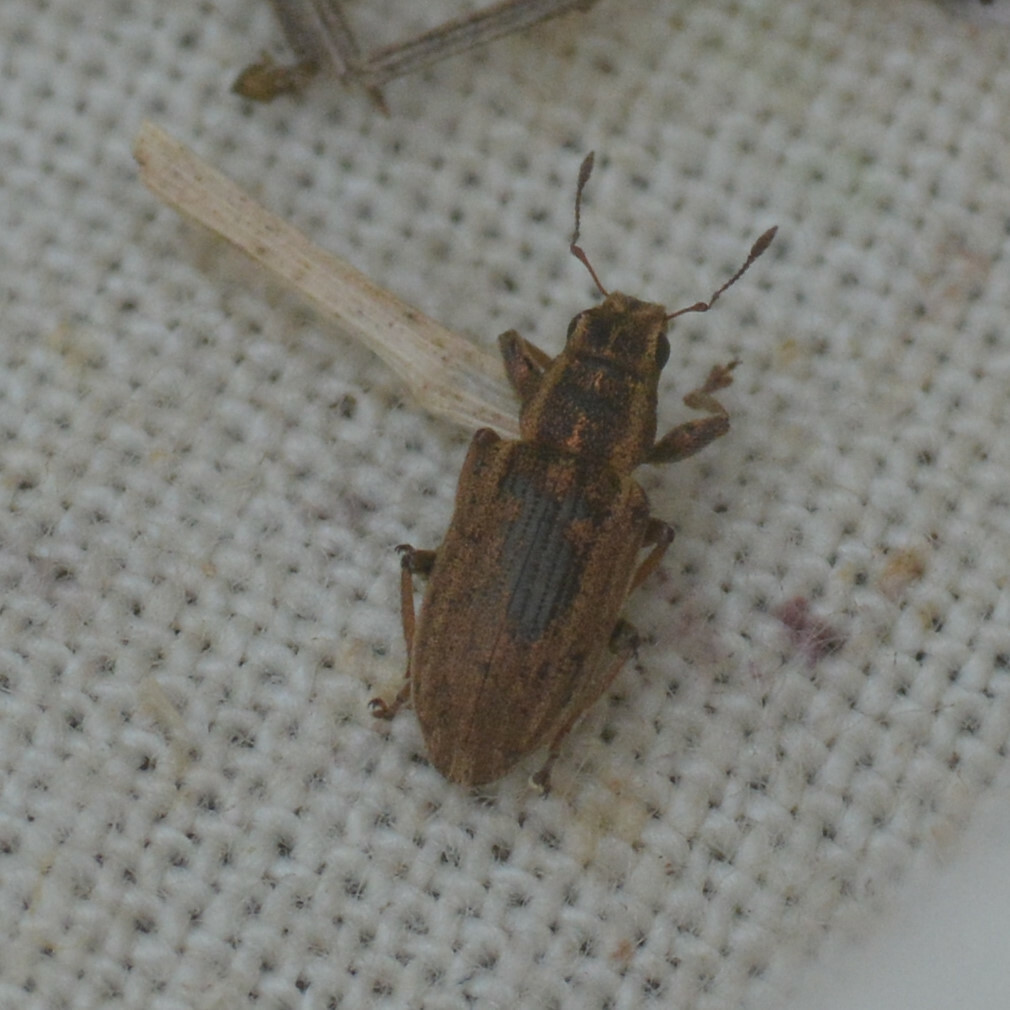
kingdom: Animalia
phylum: Arthropoda
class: Insecta
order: Coleoptera
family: Curculionidae
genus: Sitona
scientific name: Sitona lineatus
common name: Weevil
